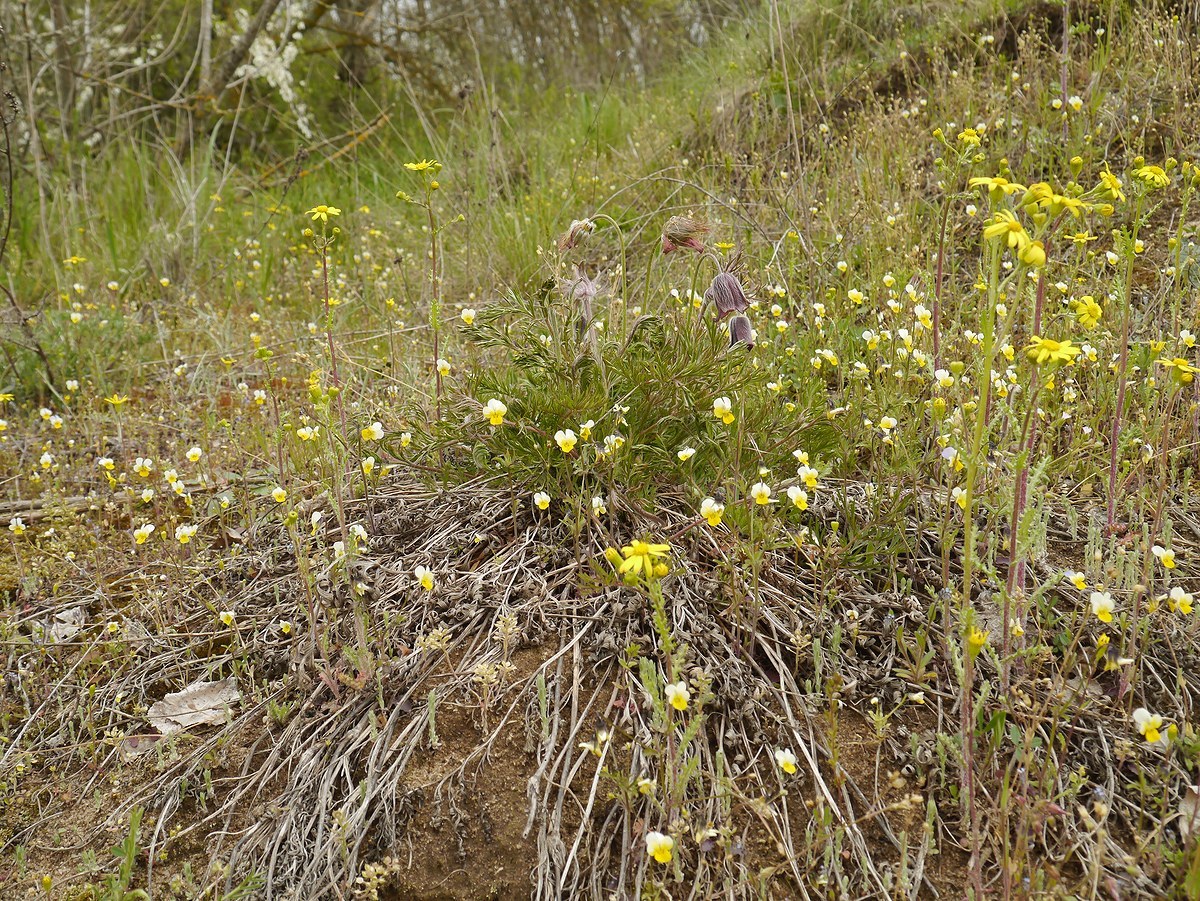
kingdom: Plantae
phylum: Tracheophyta
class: Magnoliopsida
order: Ranunculales
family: Ranunculaceae
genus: Pulsatilla
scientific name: Pulsatilla pratensis
